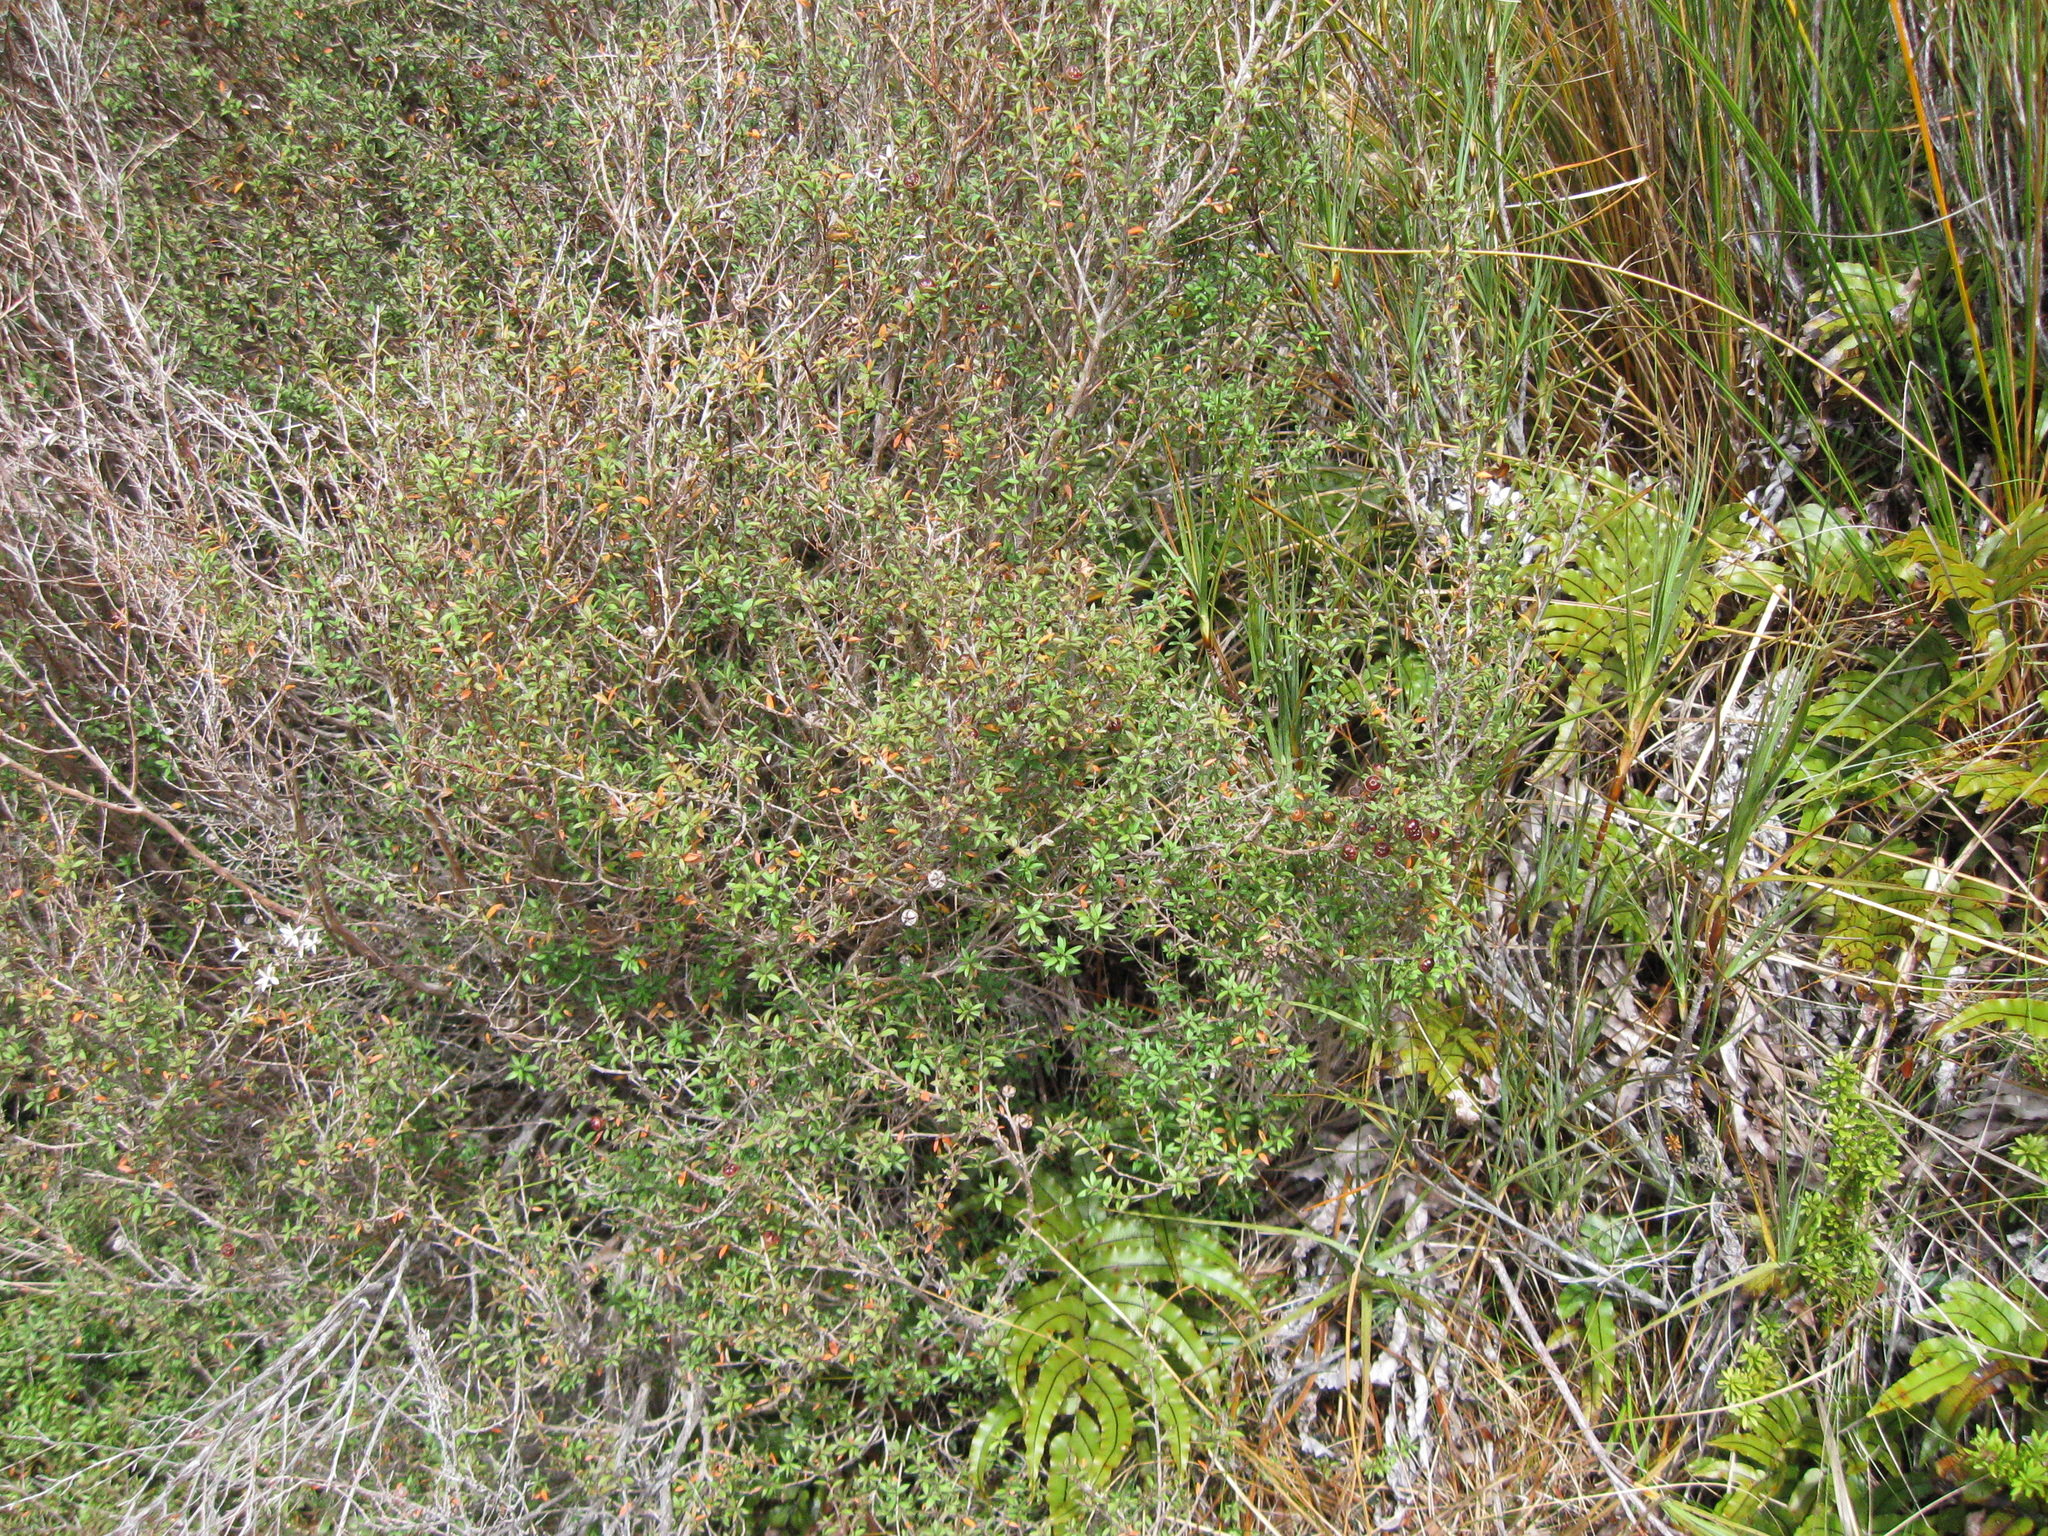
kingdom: Plantae
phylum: Tracheophyta
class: Magnoliopsida
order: Myrtales
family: Myrtaceae
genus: Leptospermum
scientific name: Leptospermum scoparium
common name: Broom tea-tree
